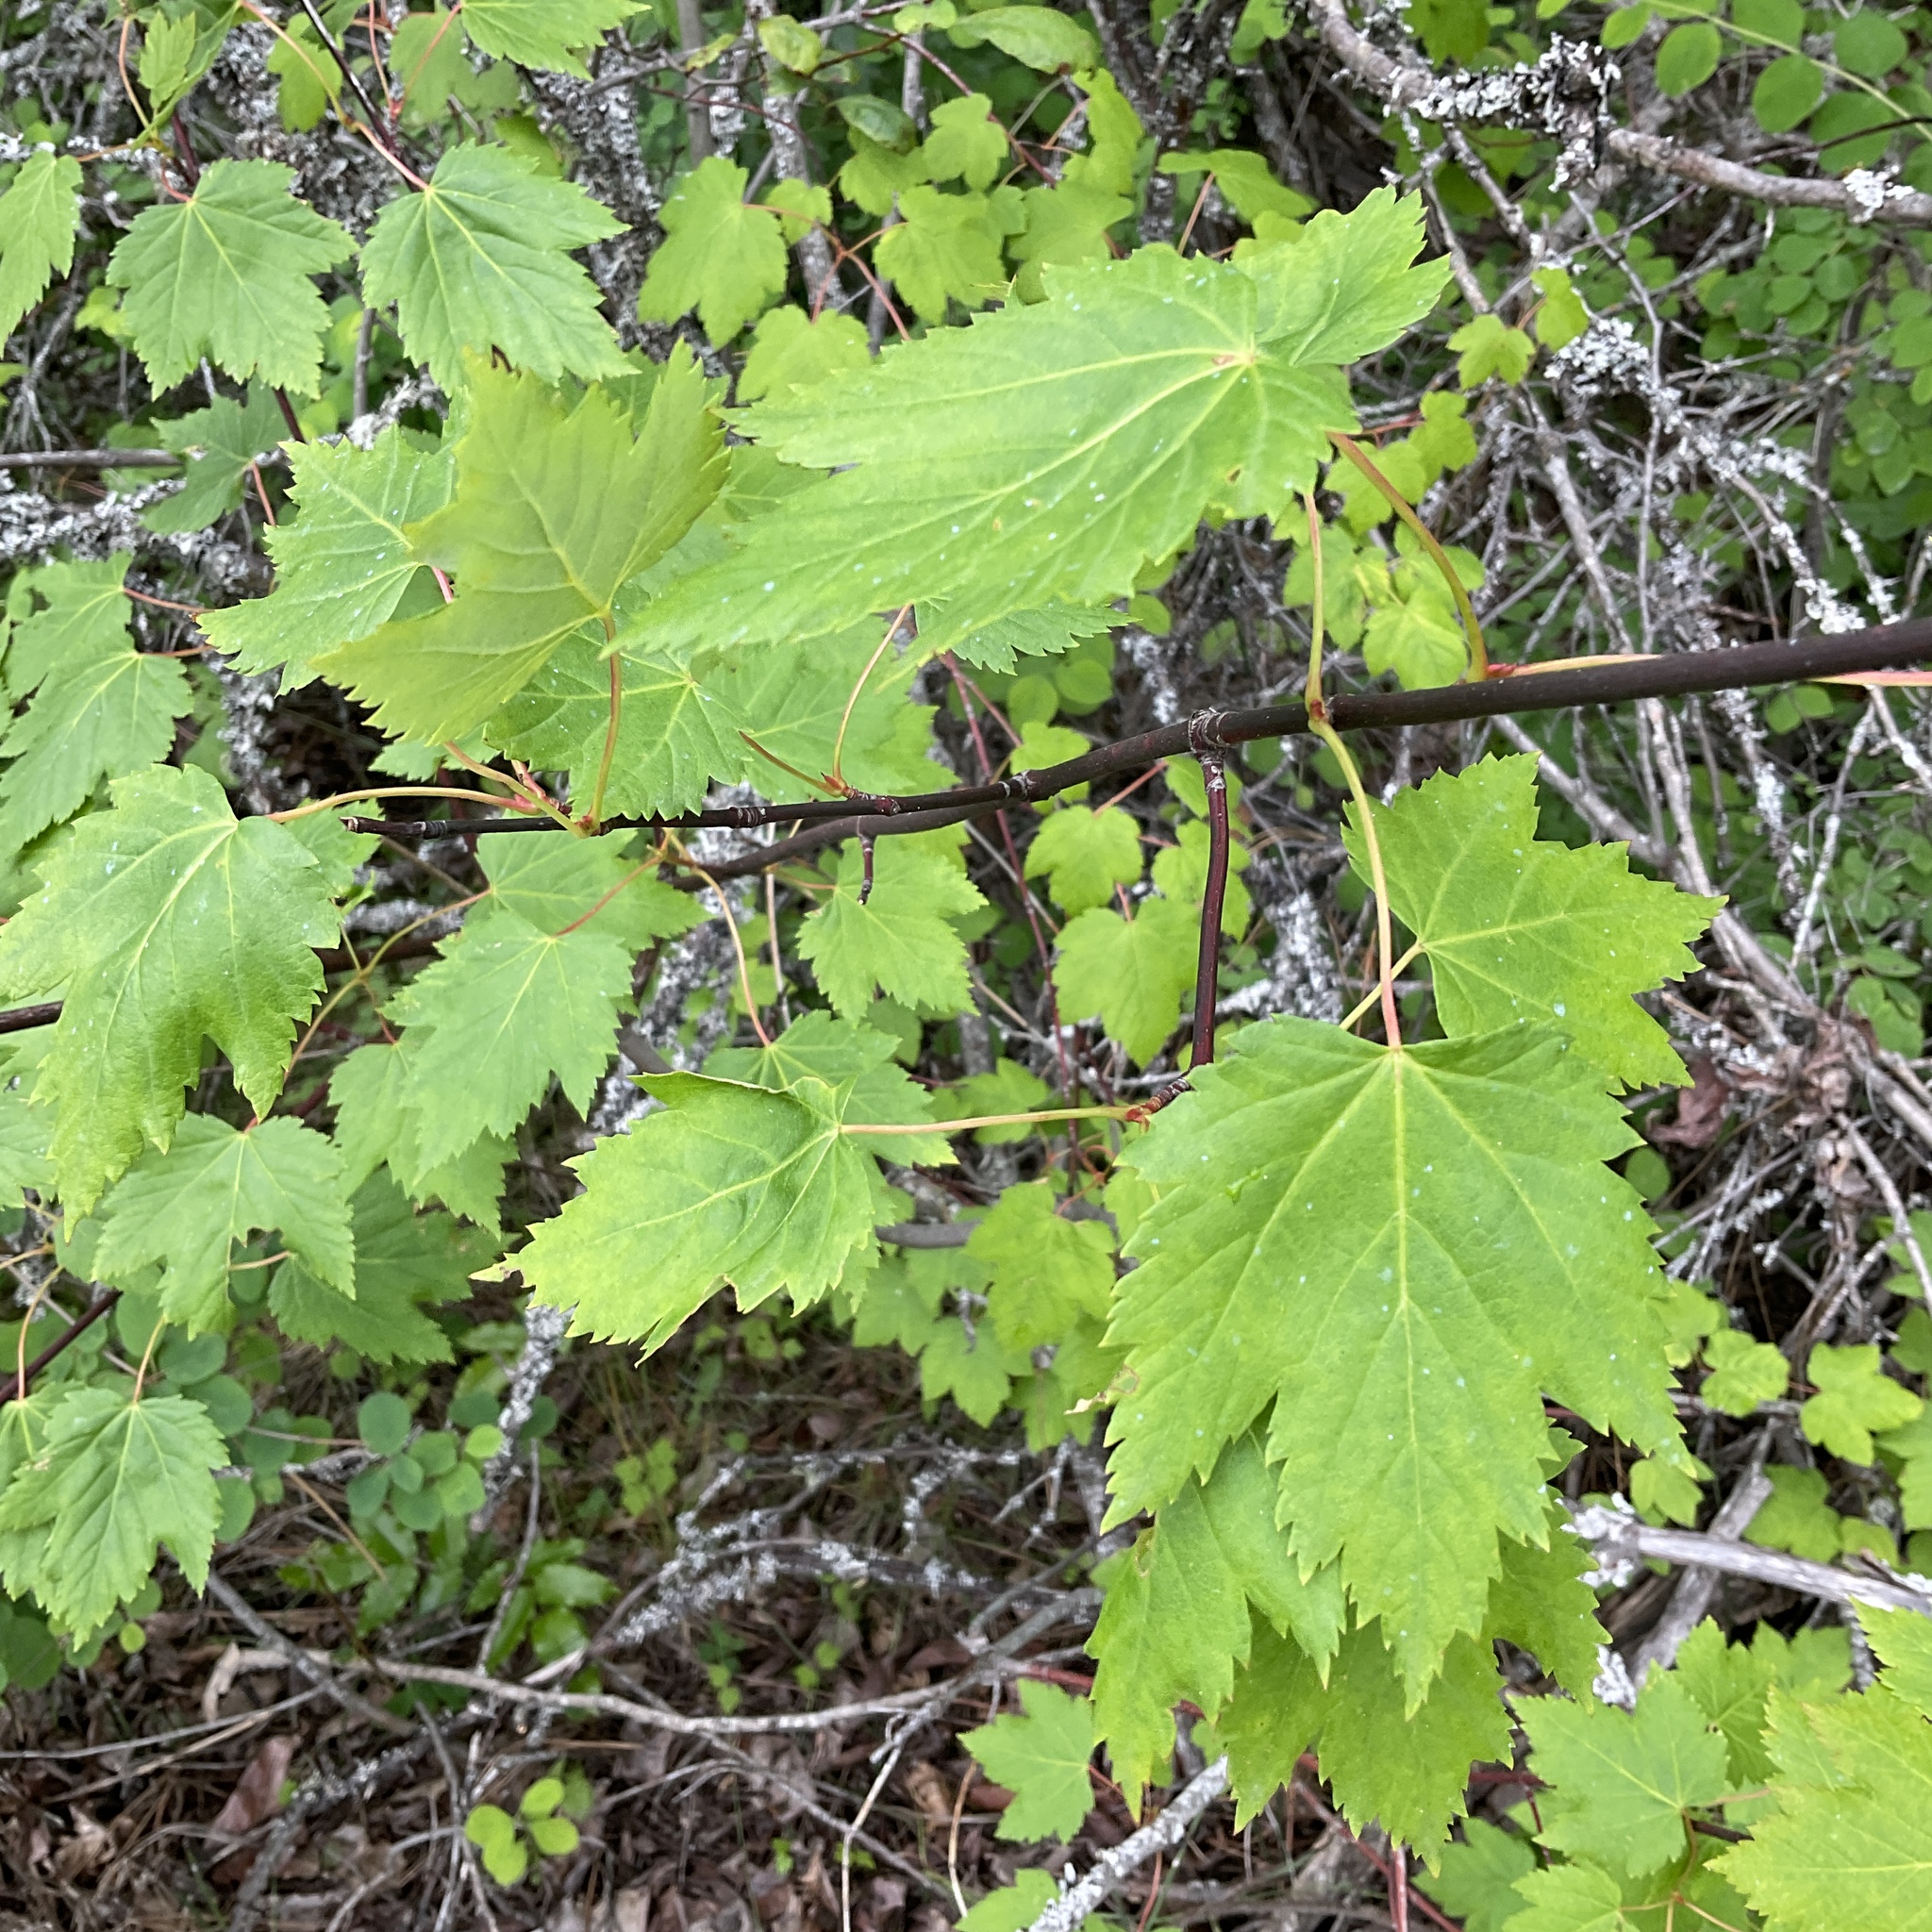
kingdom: Plantae
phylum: Tracheophyta
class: Magnoliopsida
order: Sapindales
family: Sapindaceae
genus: Acer
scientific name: Acer glabrum
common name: Rocky mountain maple
